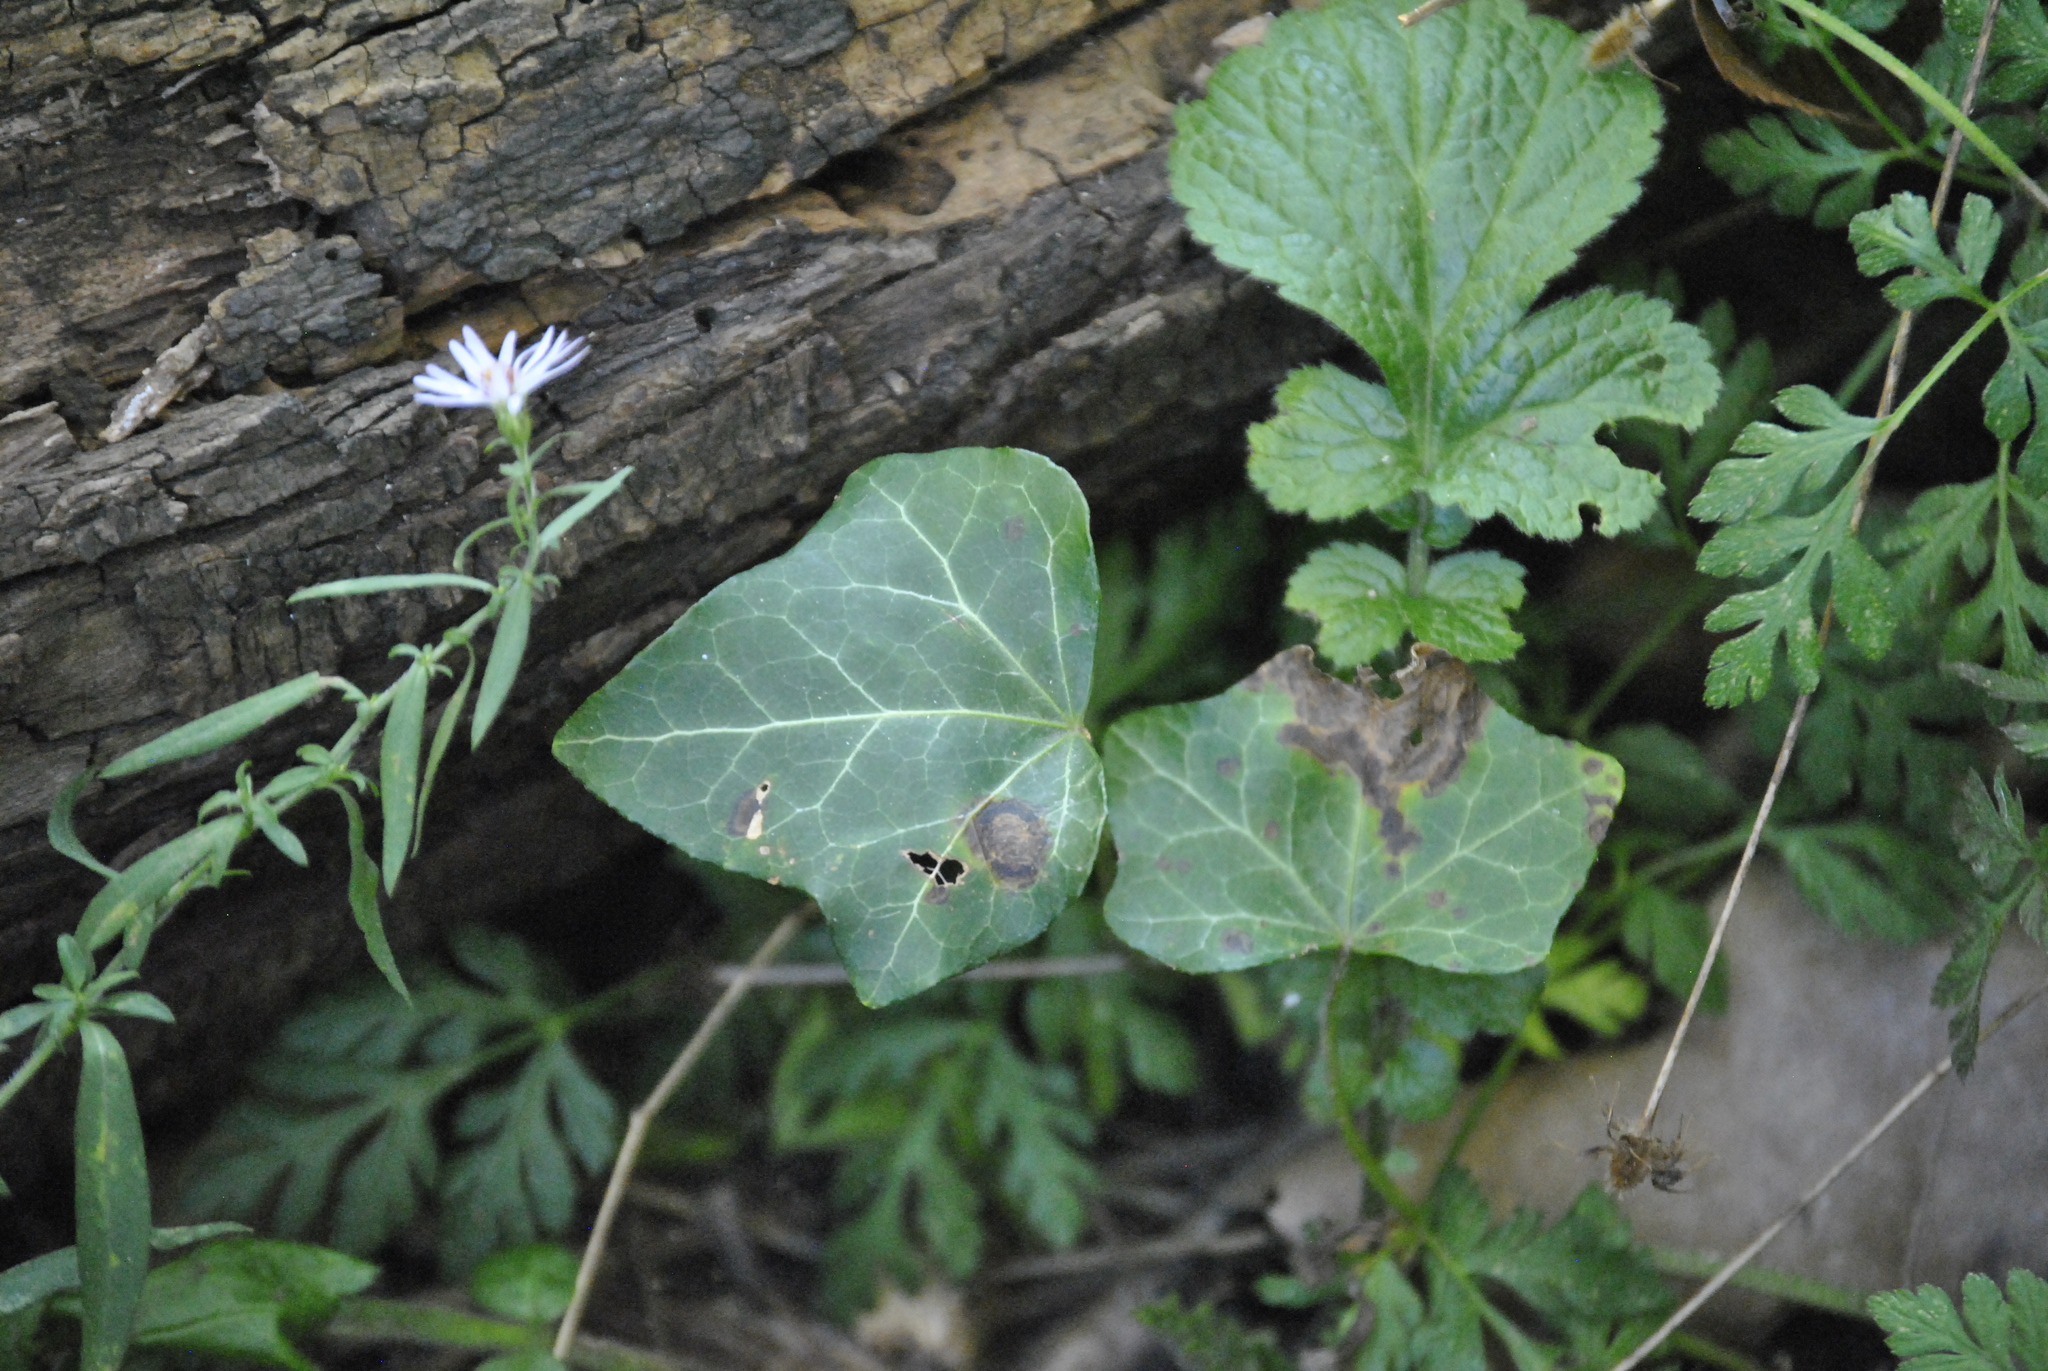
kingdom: Plantae
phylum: Tracheophyta
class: Magnoliopsida
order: Apiales
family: Araliaceae
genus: Hedera
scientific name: Hedera helix
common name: Ivy
